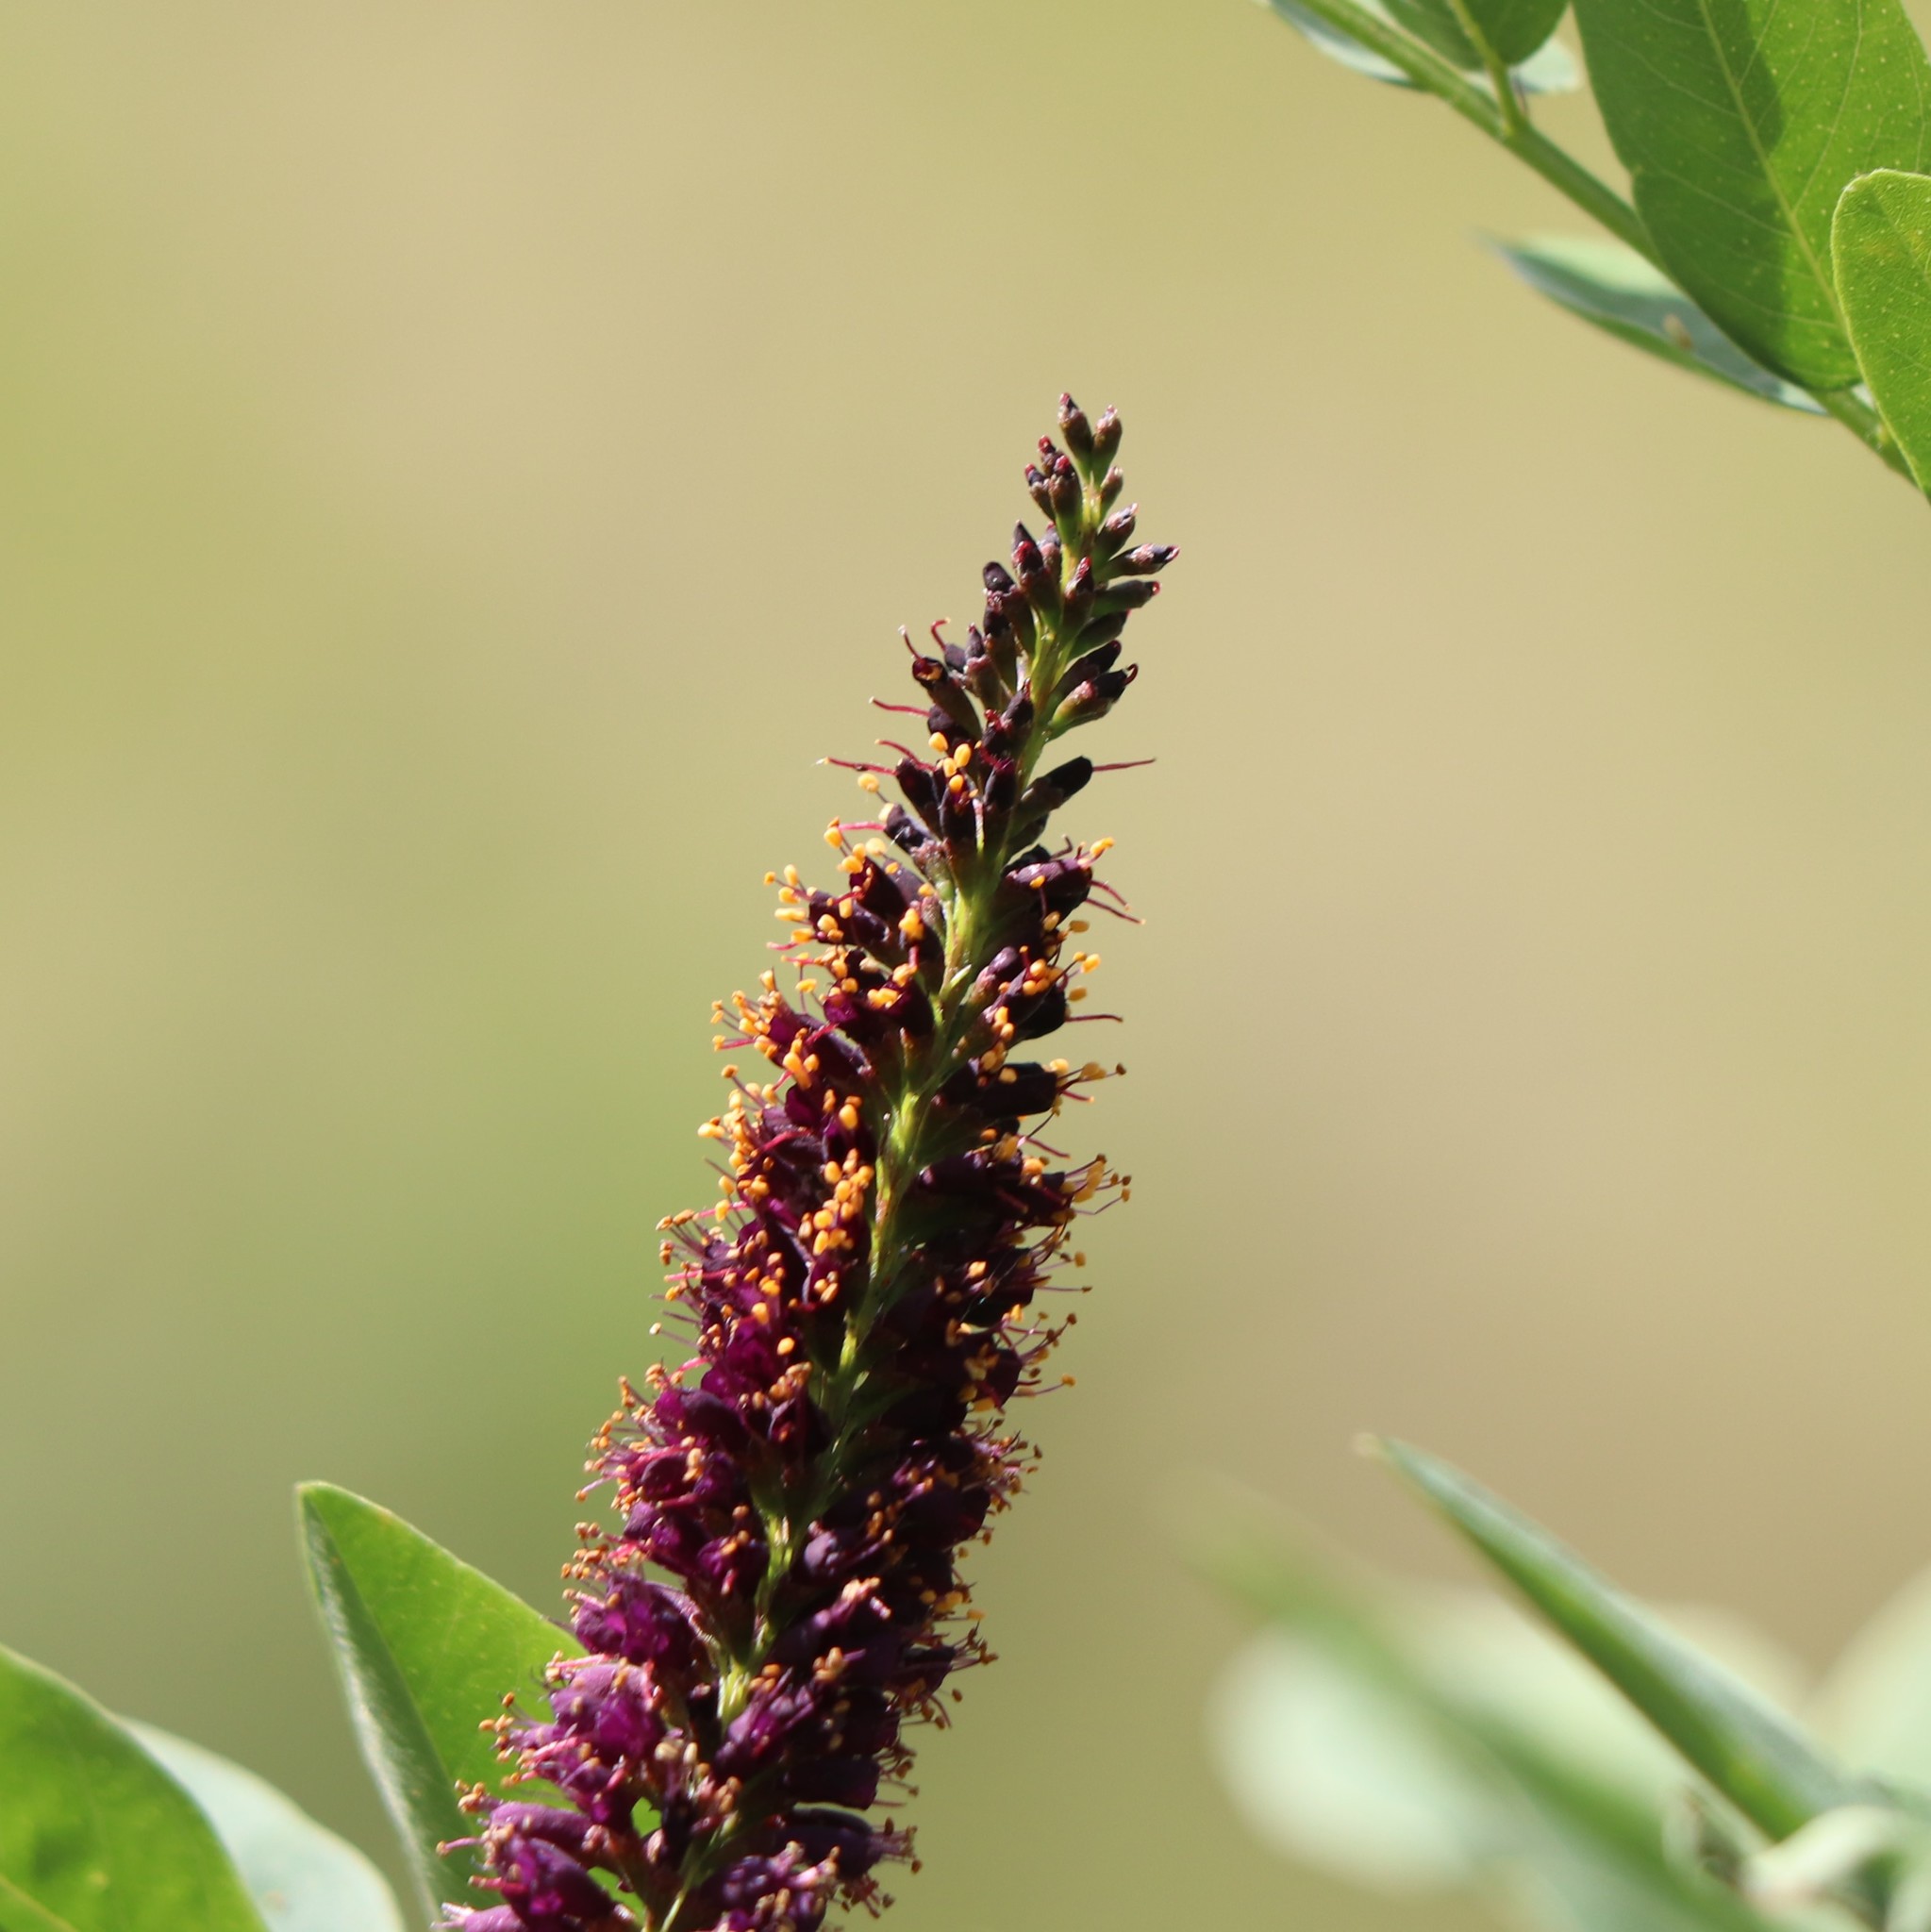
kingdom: Plantae
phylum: Tracheophyta
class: Magnoliopsida
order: Fabales
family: Fabaceae
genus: Amorpha
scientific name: Amorpha fruticosa
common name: False indigo
